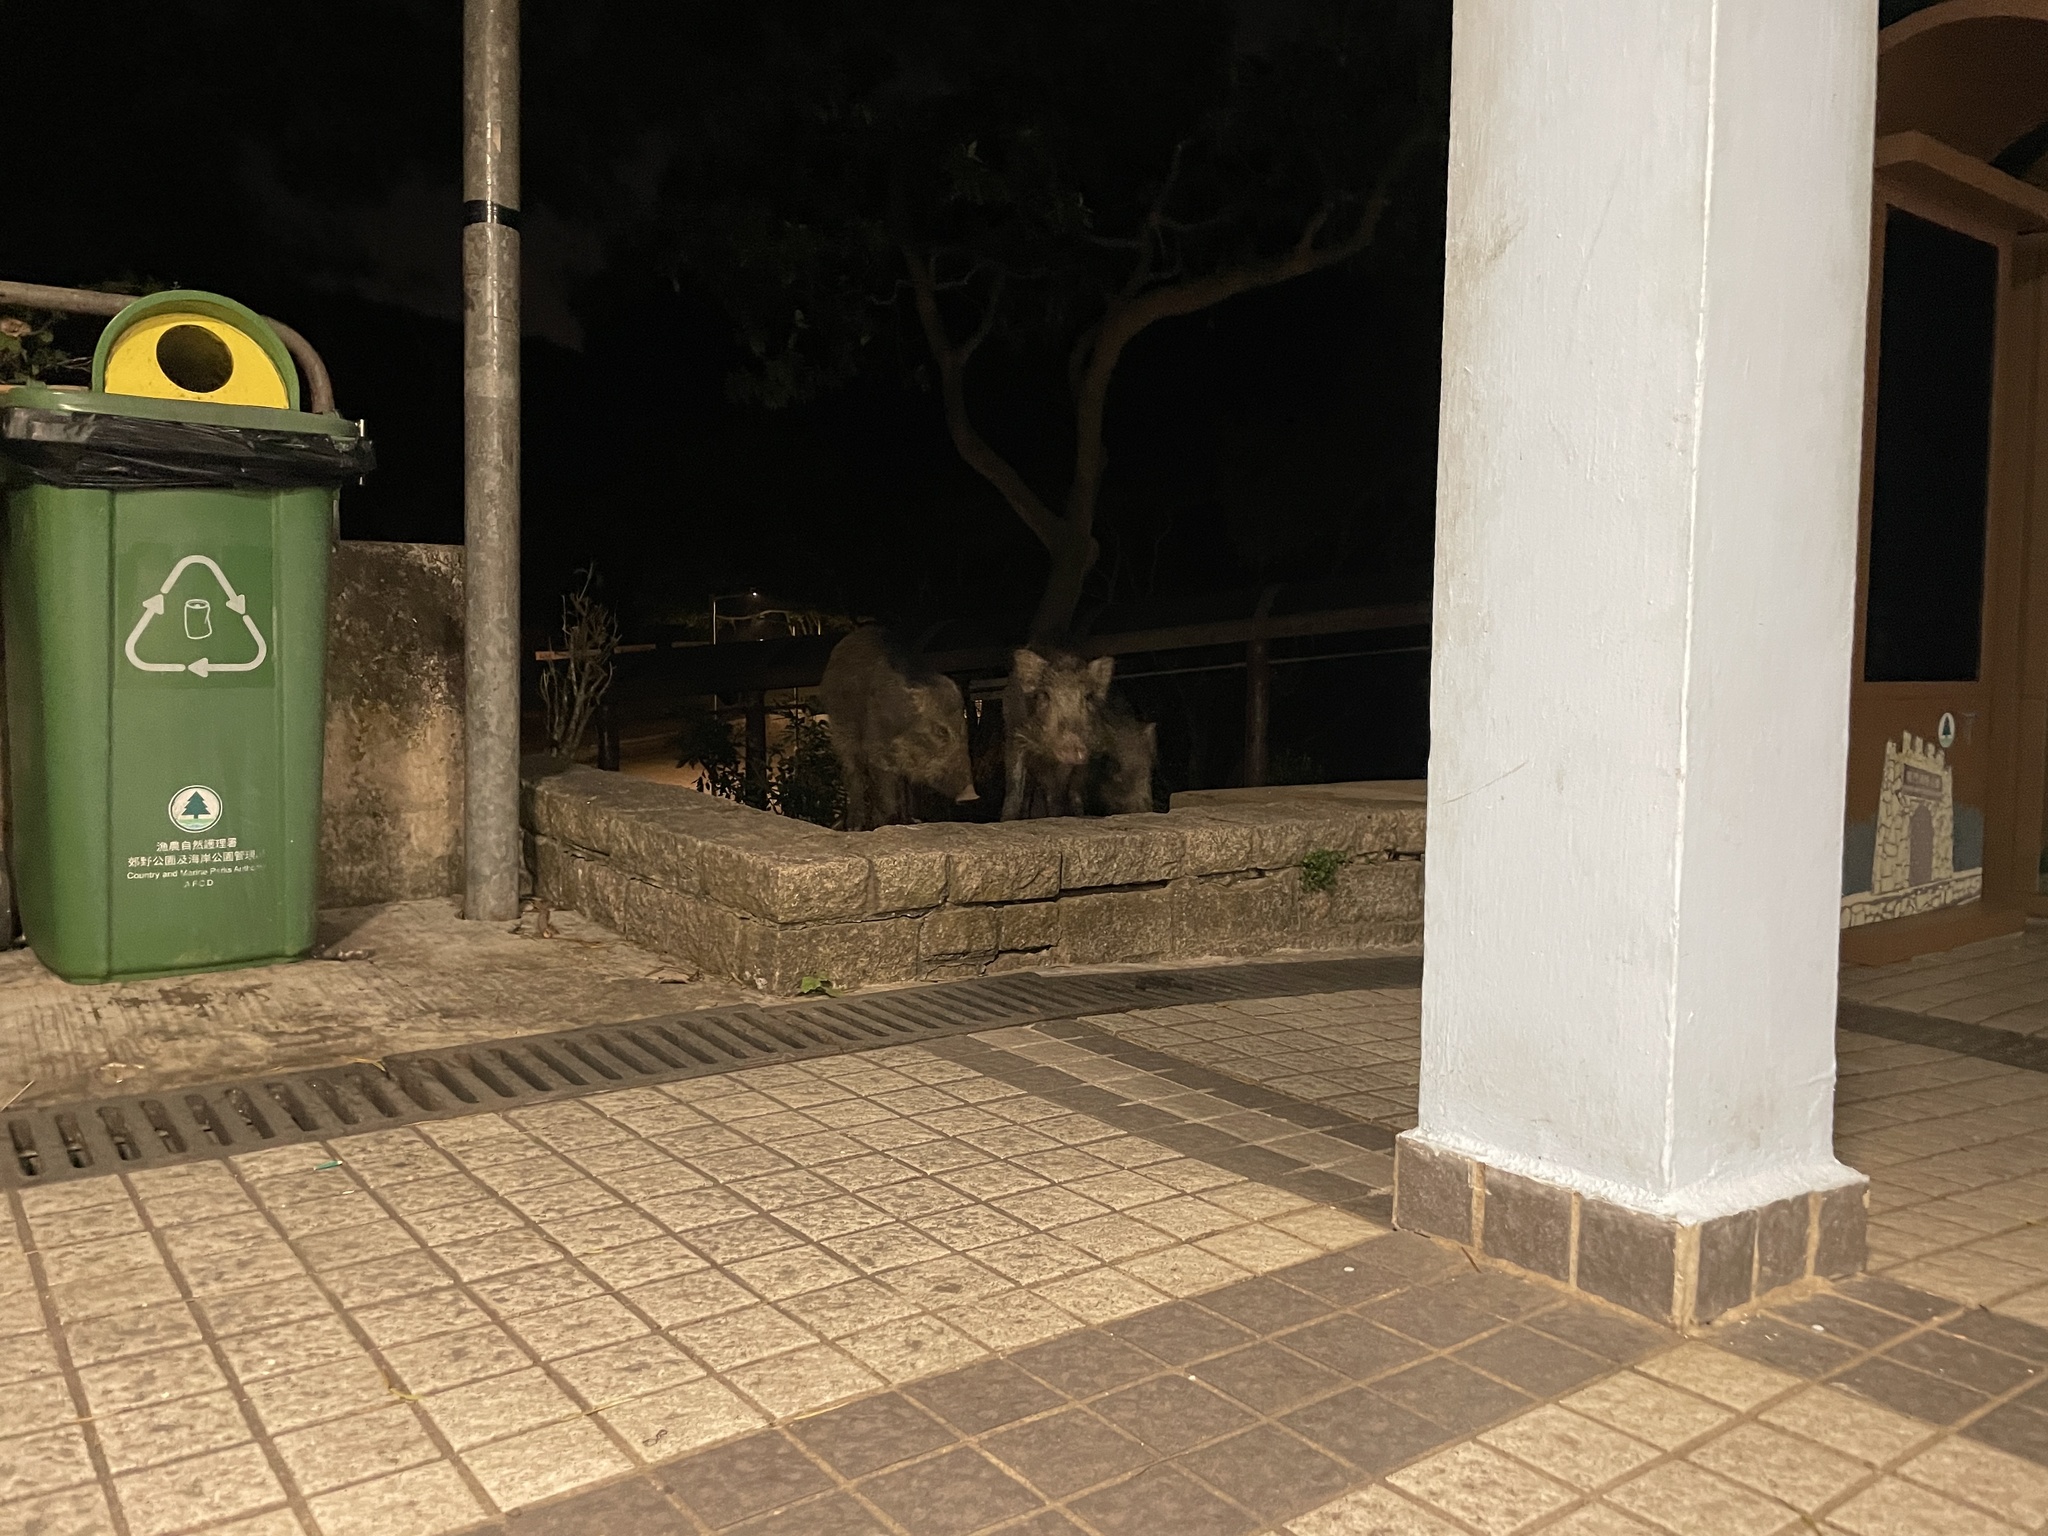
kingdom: Animalia
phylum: Chordata
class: Mammalia
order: Artiodactyla
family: Suidae
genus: Sus
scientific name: Sus scrofa
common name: Wild boar
